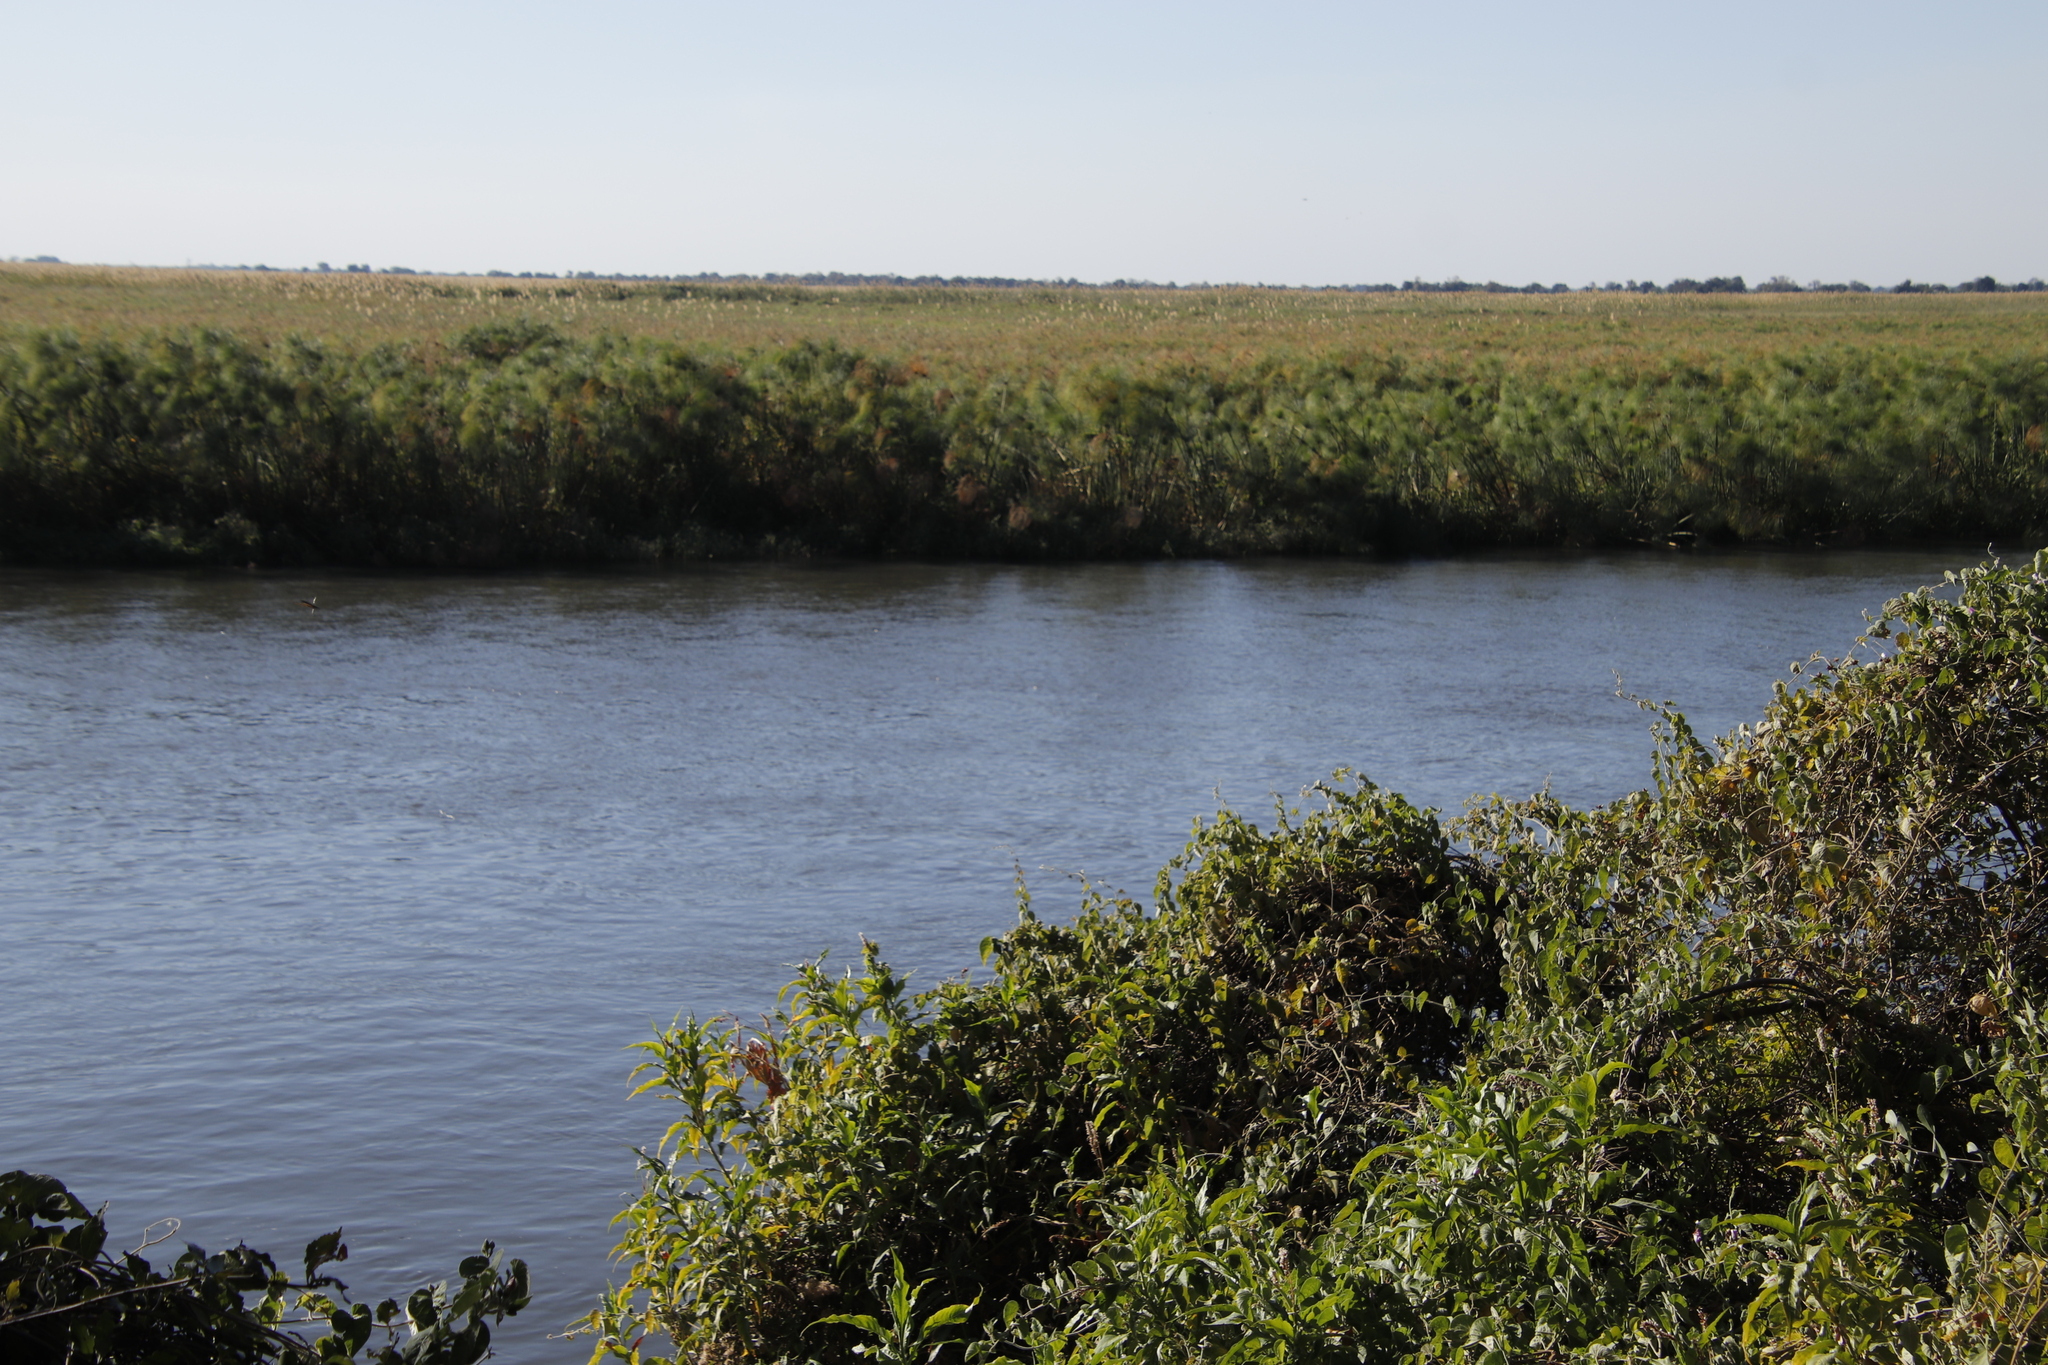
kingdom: Plantae
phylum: Tracheophyta
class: Liliopsida
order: Poales
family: Cyperaceae
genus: Cyperus
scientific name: Cyperus papyrus
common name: Papyrus
